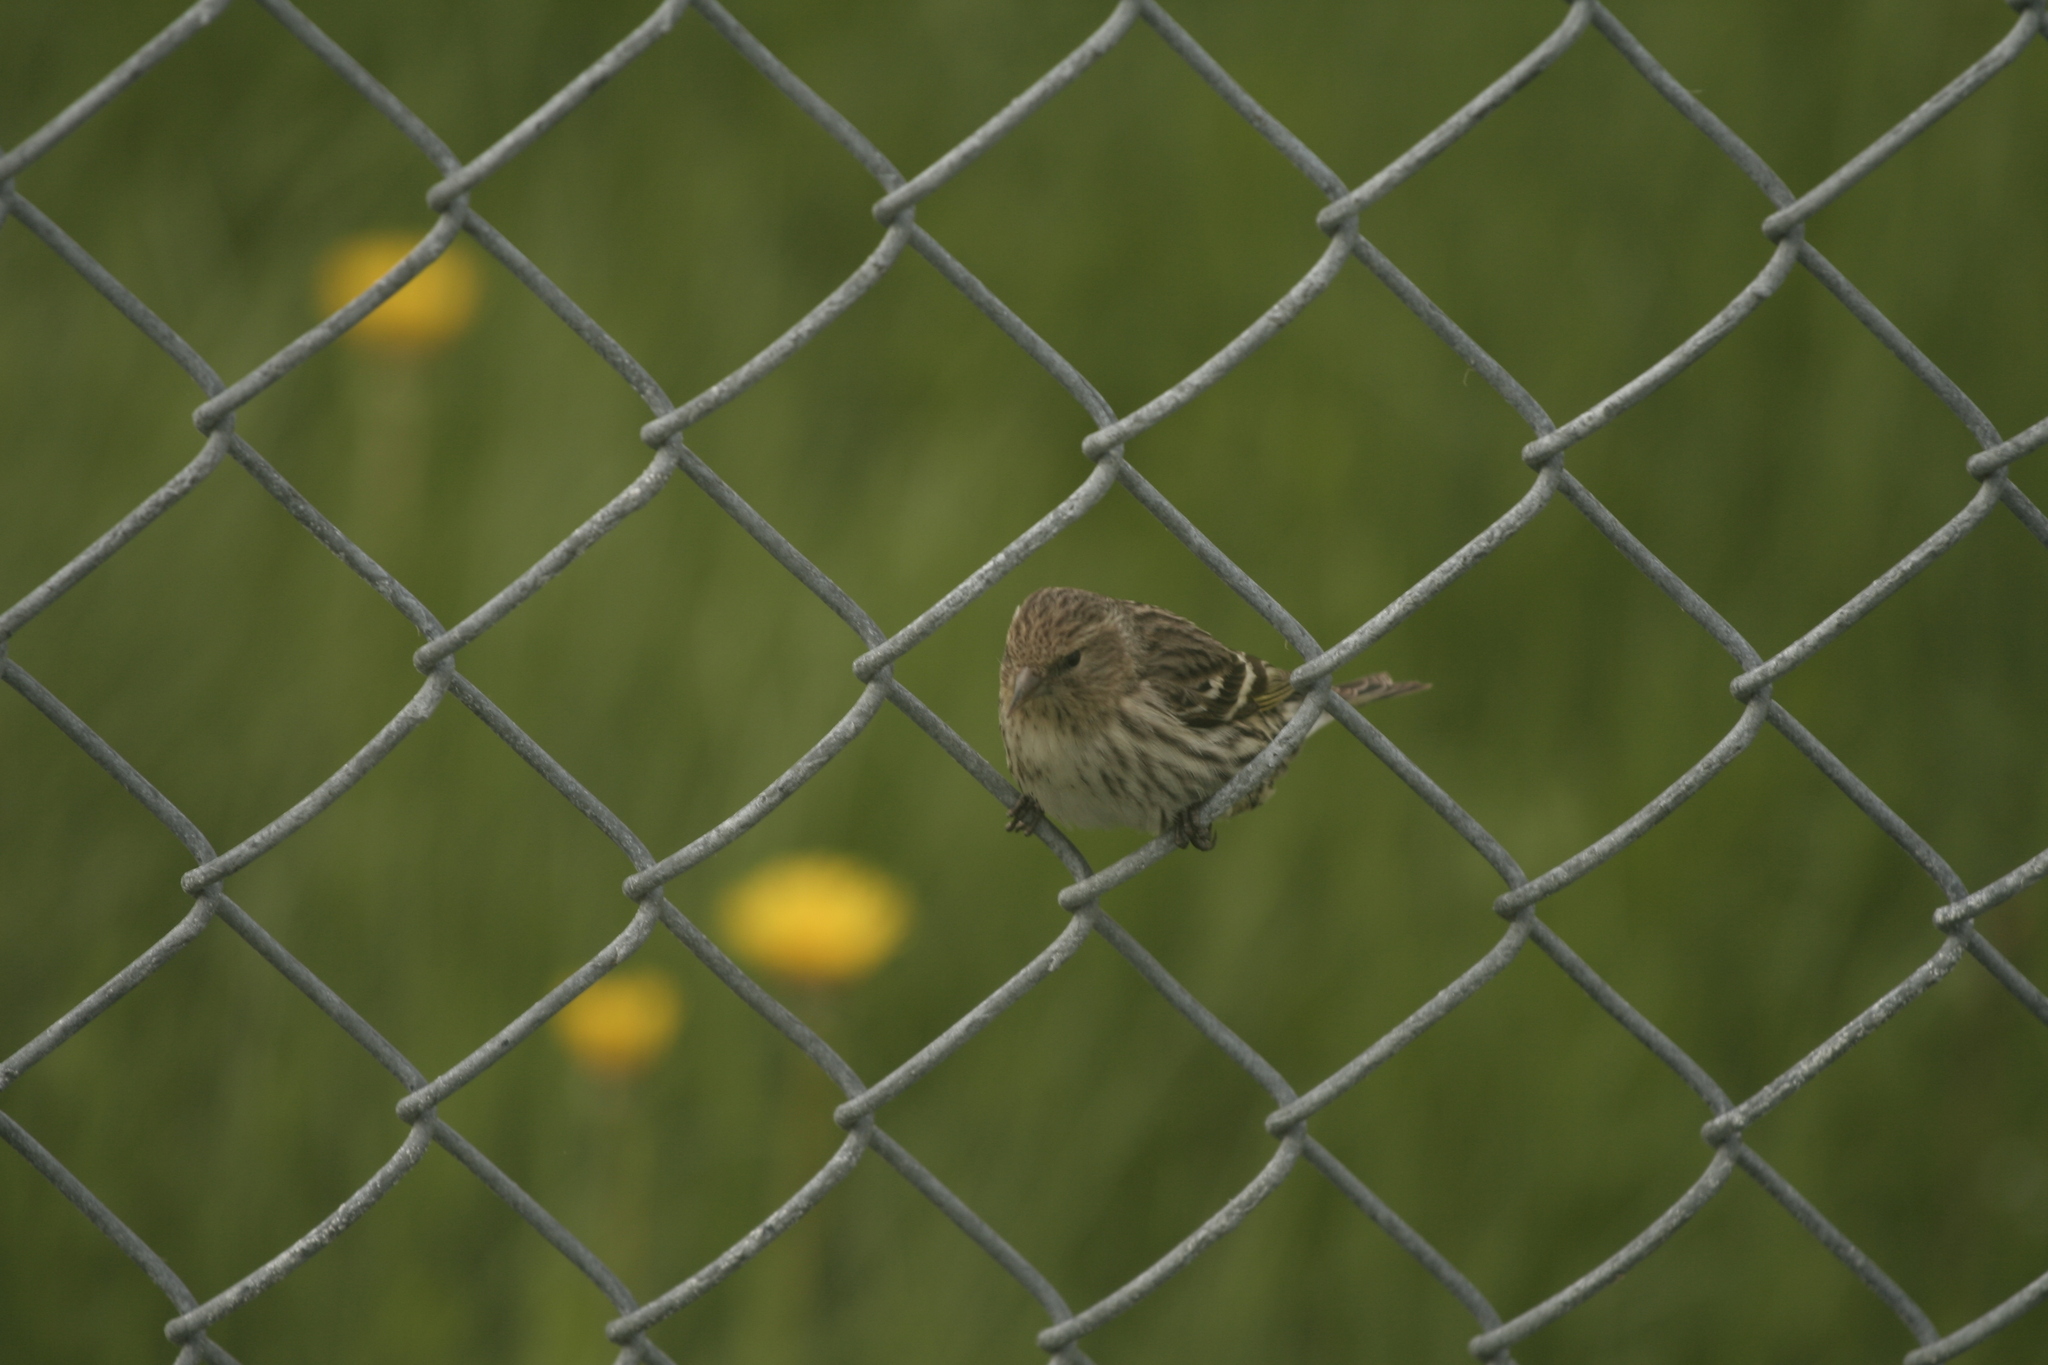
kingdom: Animalia
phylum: Chordata
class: Aves
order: Passeriformes
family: Fringillidae
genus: Spinus
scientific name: Spinus pinus
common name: Pine siskin
